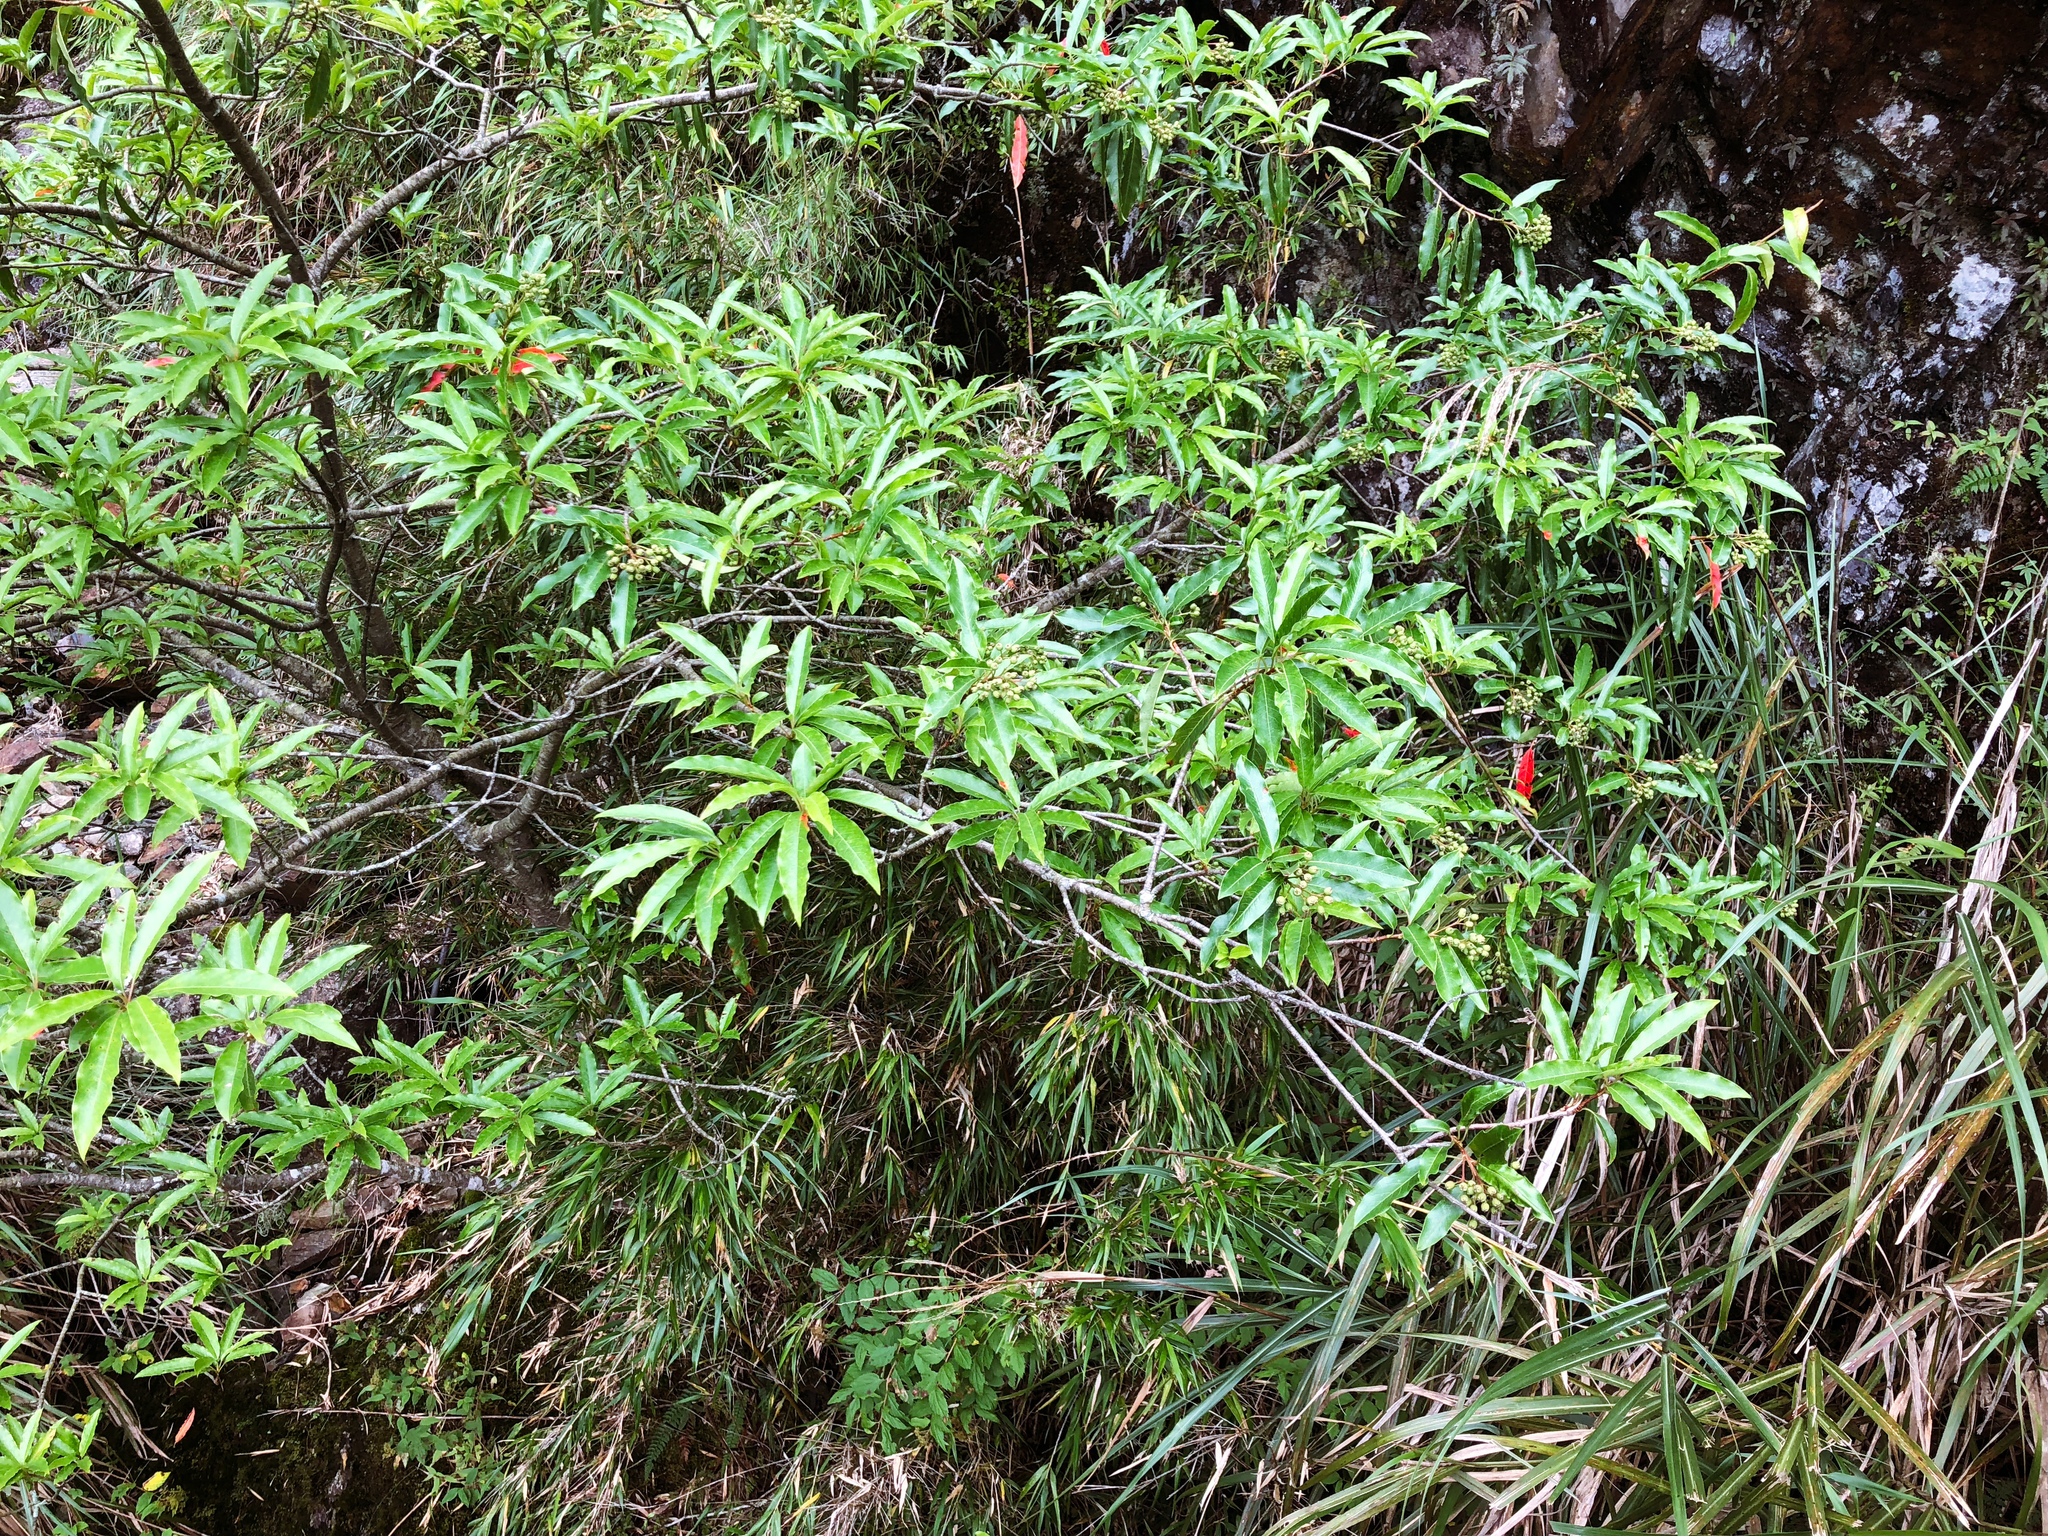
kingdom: Plantae
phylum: Tracheophyta
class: Magnoliopsida
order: Rosales
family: Rosaceae
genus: Stranvaesia
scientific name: Stranvaesia davidiana
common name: Chinese photinia
